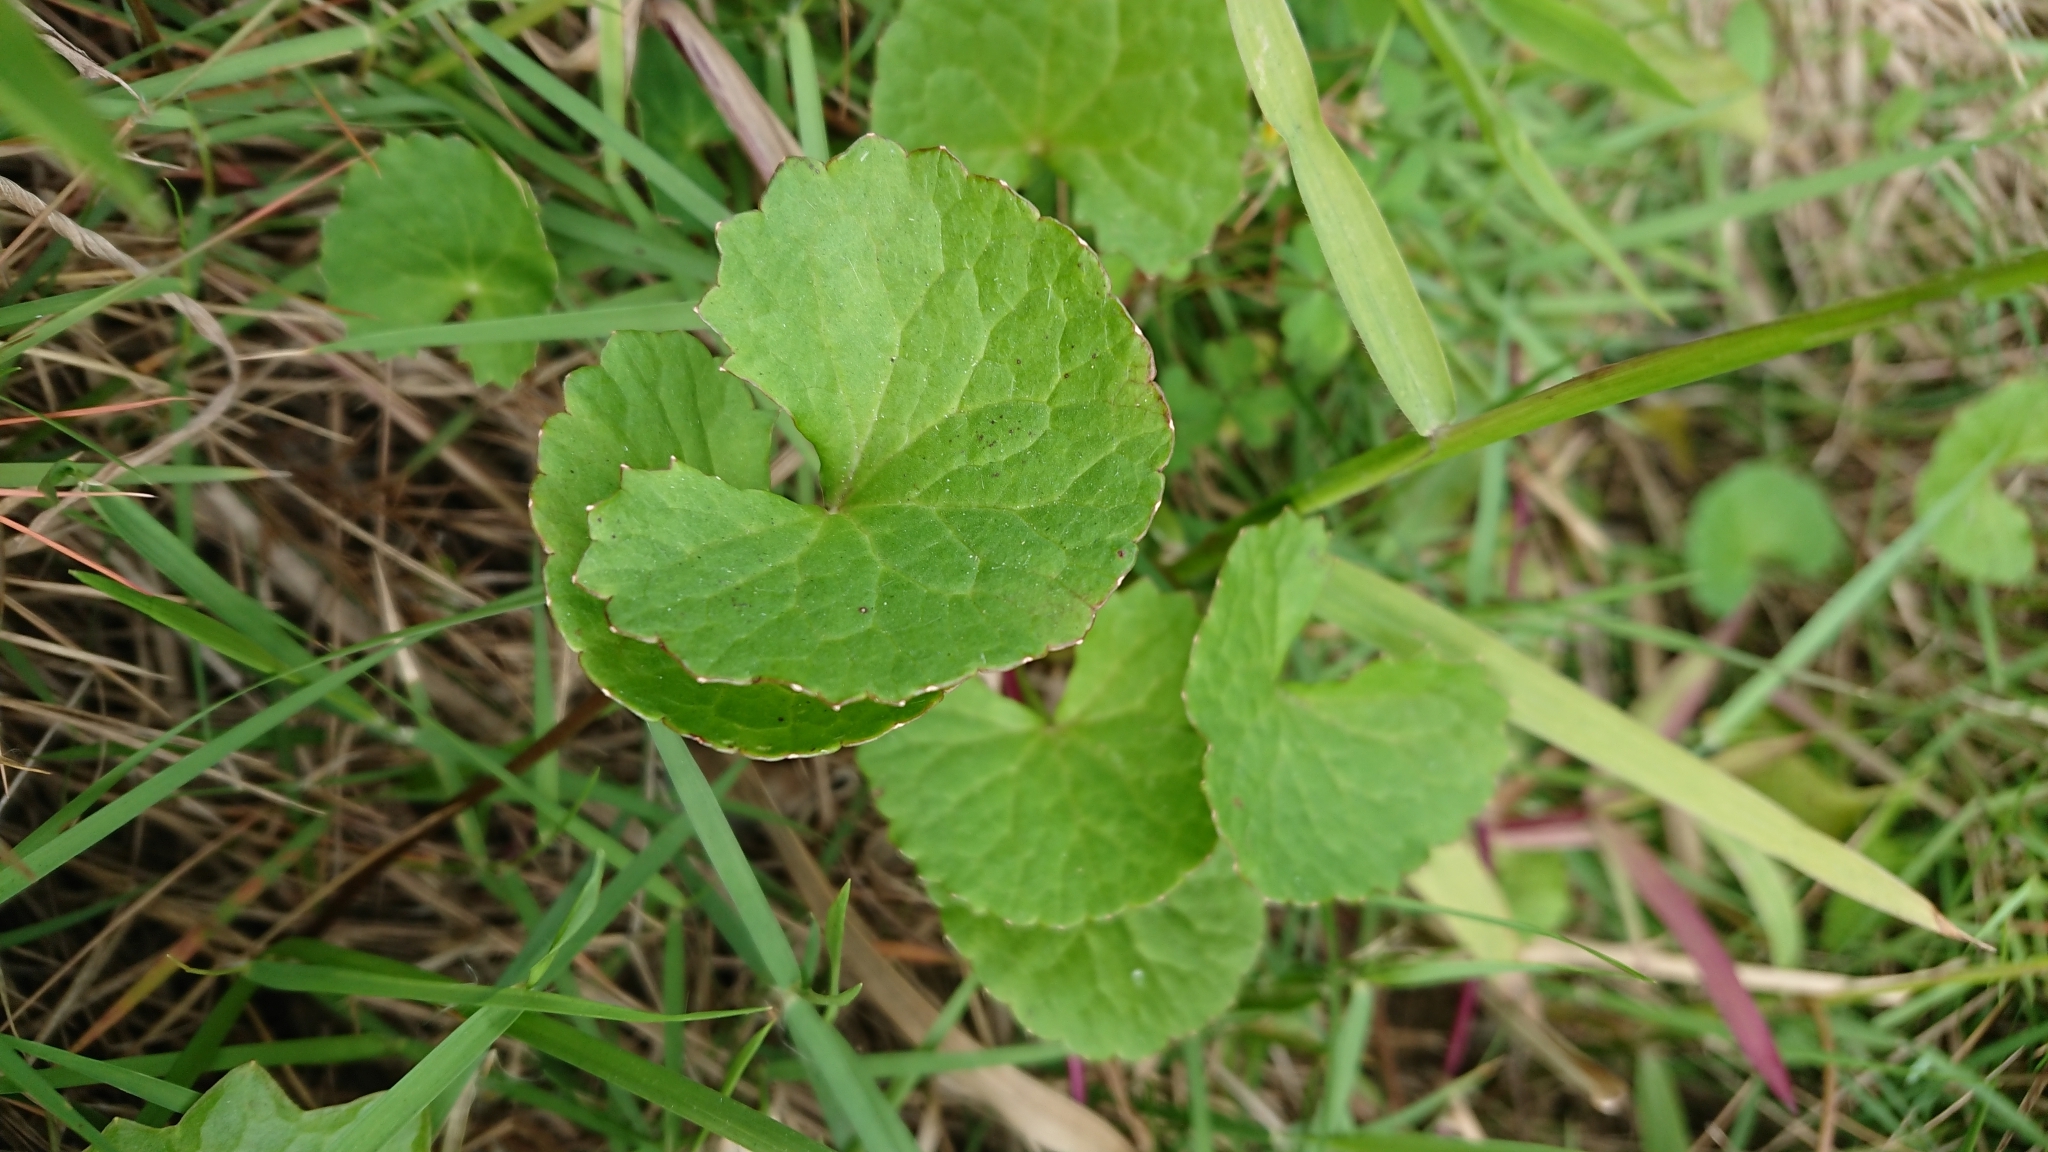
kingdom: Plantae
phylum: Tracheophyta
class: Magnoliopsida
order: Apiales
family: Apiaceae
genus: Centella
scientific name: Centella asiatica
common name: Spadeleaf
